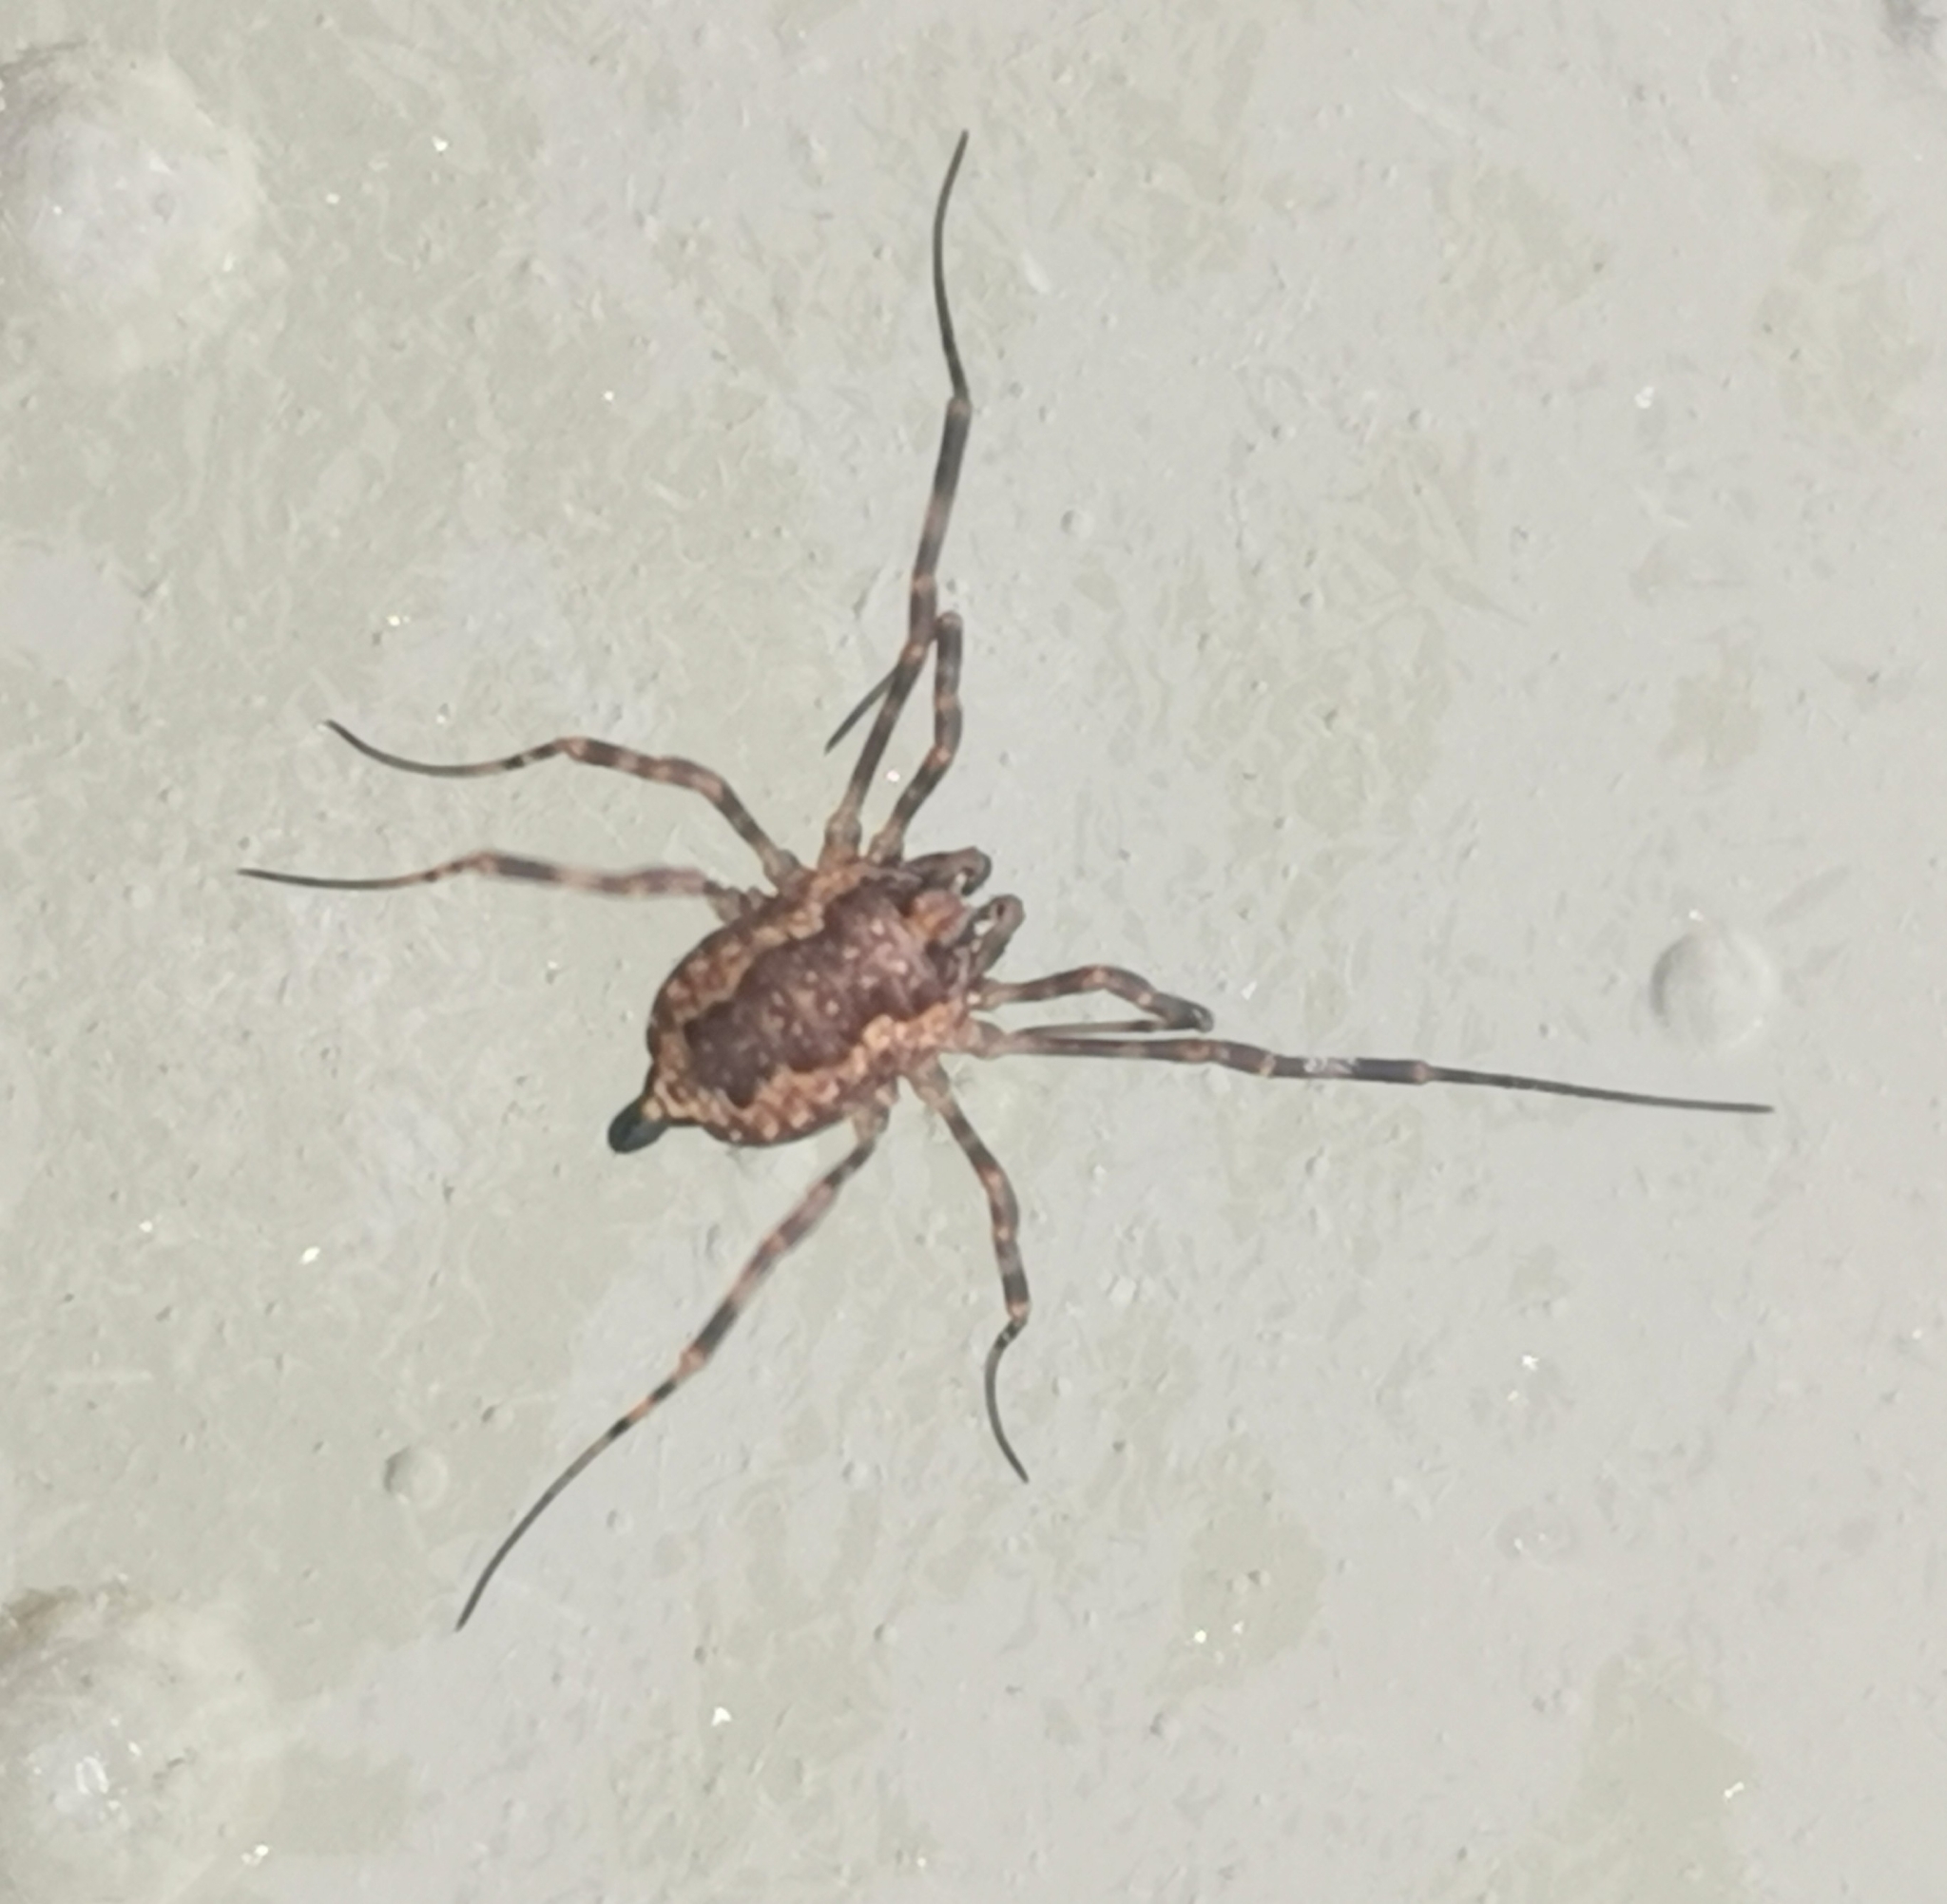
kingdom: Animalia
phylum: Arthropoda
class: Arachnida
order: Opiliones
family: Phalangiidae
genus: Rilaena
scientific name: Rilaena triangularis
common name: Spring harvestman
